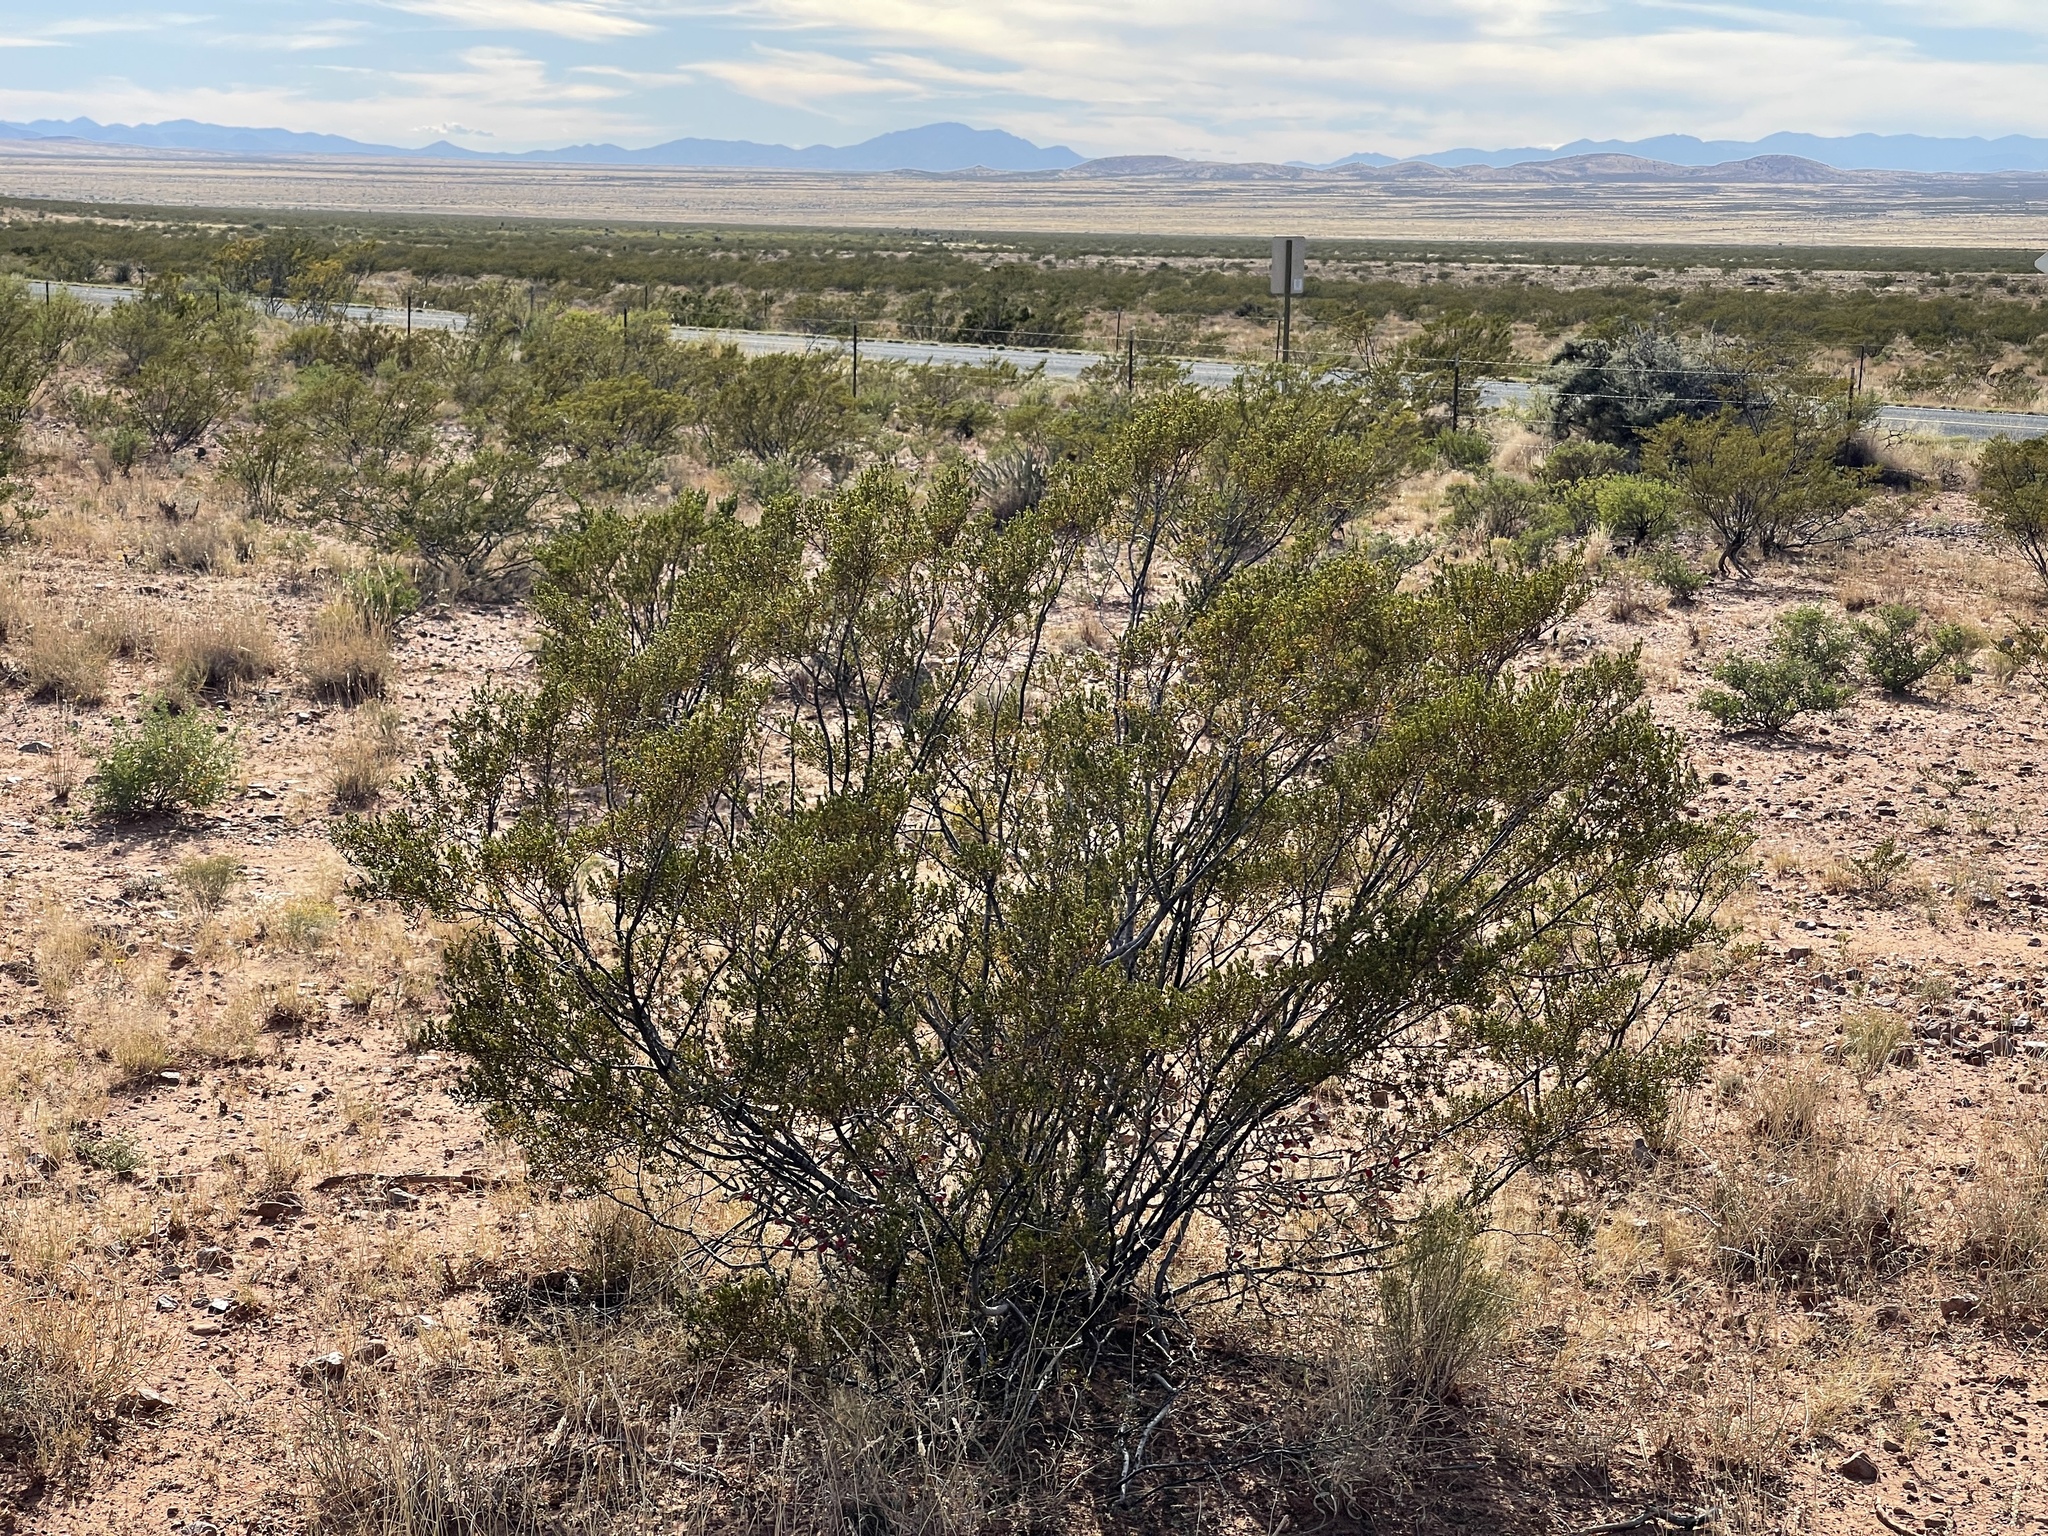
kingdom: Plantae
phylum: Tracheophyta
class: Magnoliopsida
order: Zygophyllales
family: Zygophyllaceae
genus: Larrea
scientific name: Larrea tridentata
